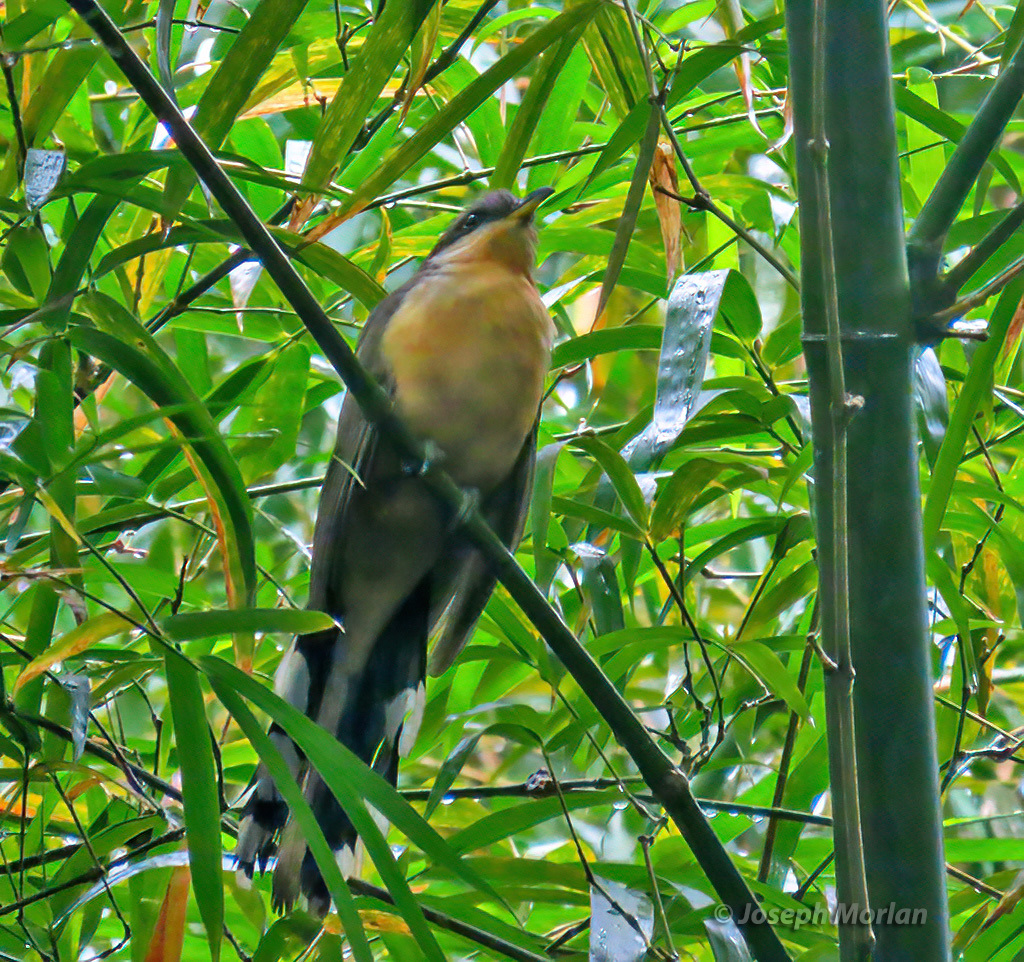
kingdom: Animalia
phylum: Chordata
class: Aves
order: Cuculiformes
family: Cuculidae
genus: Coccyzus
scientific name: Coccyzus minor
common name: Mangrove cuckoo
